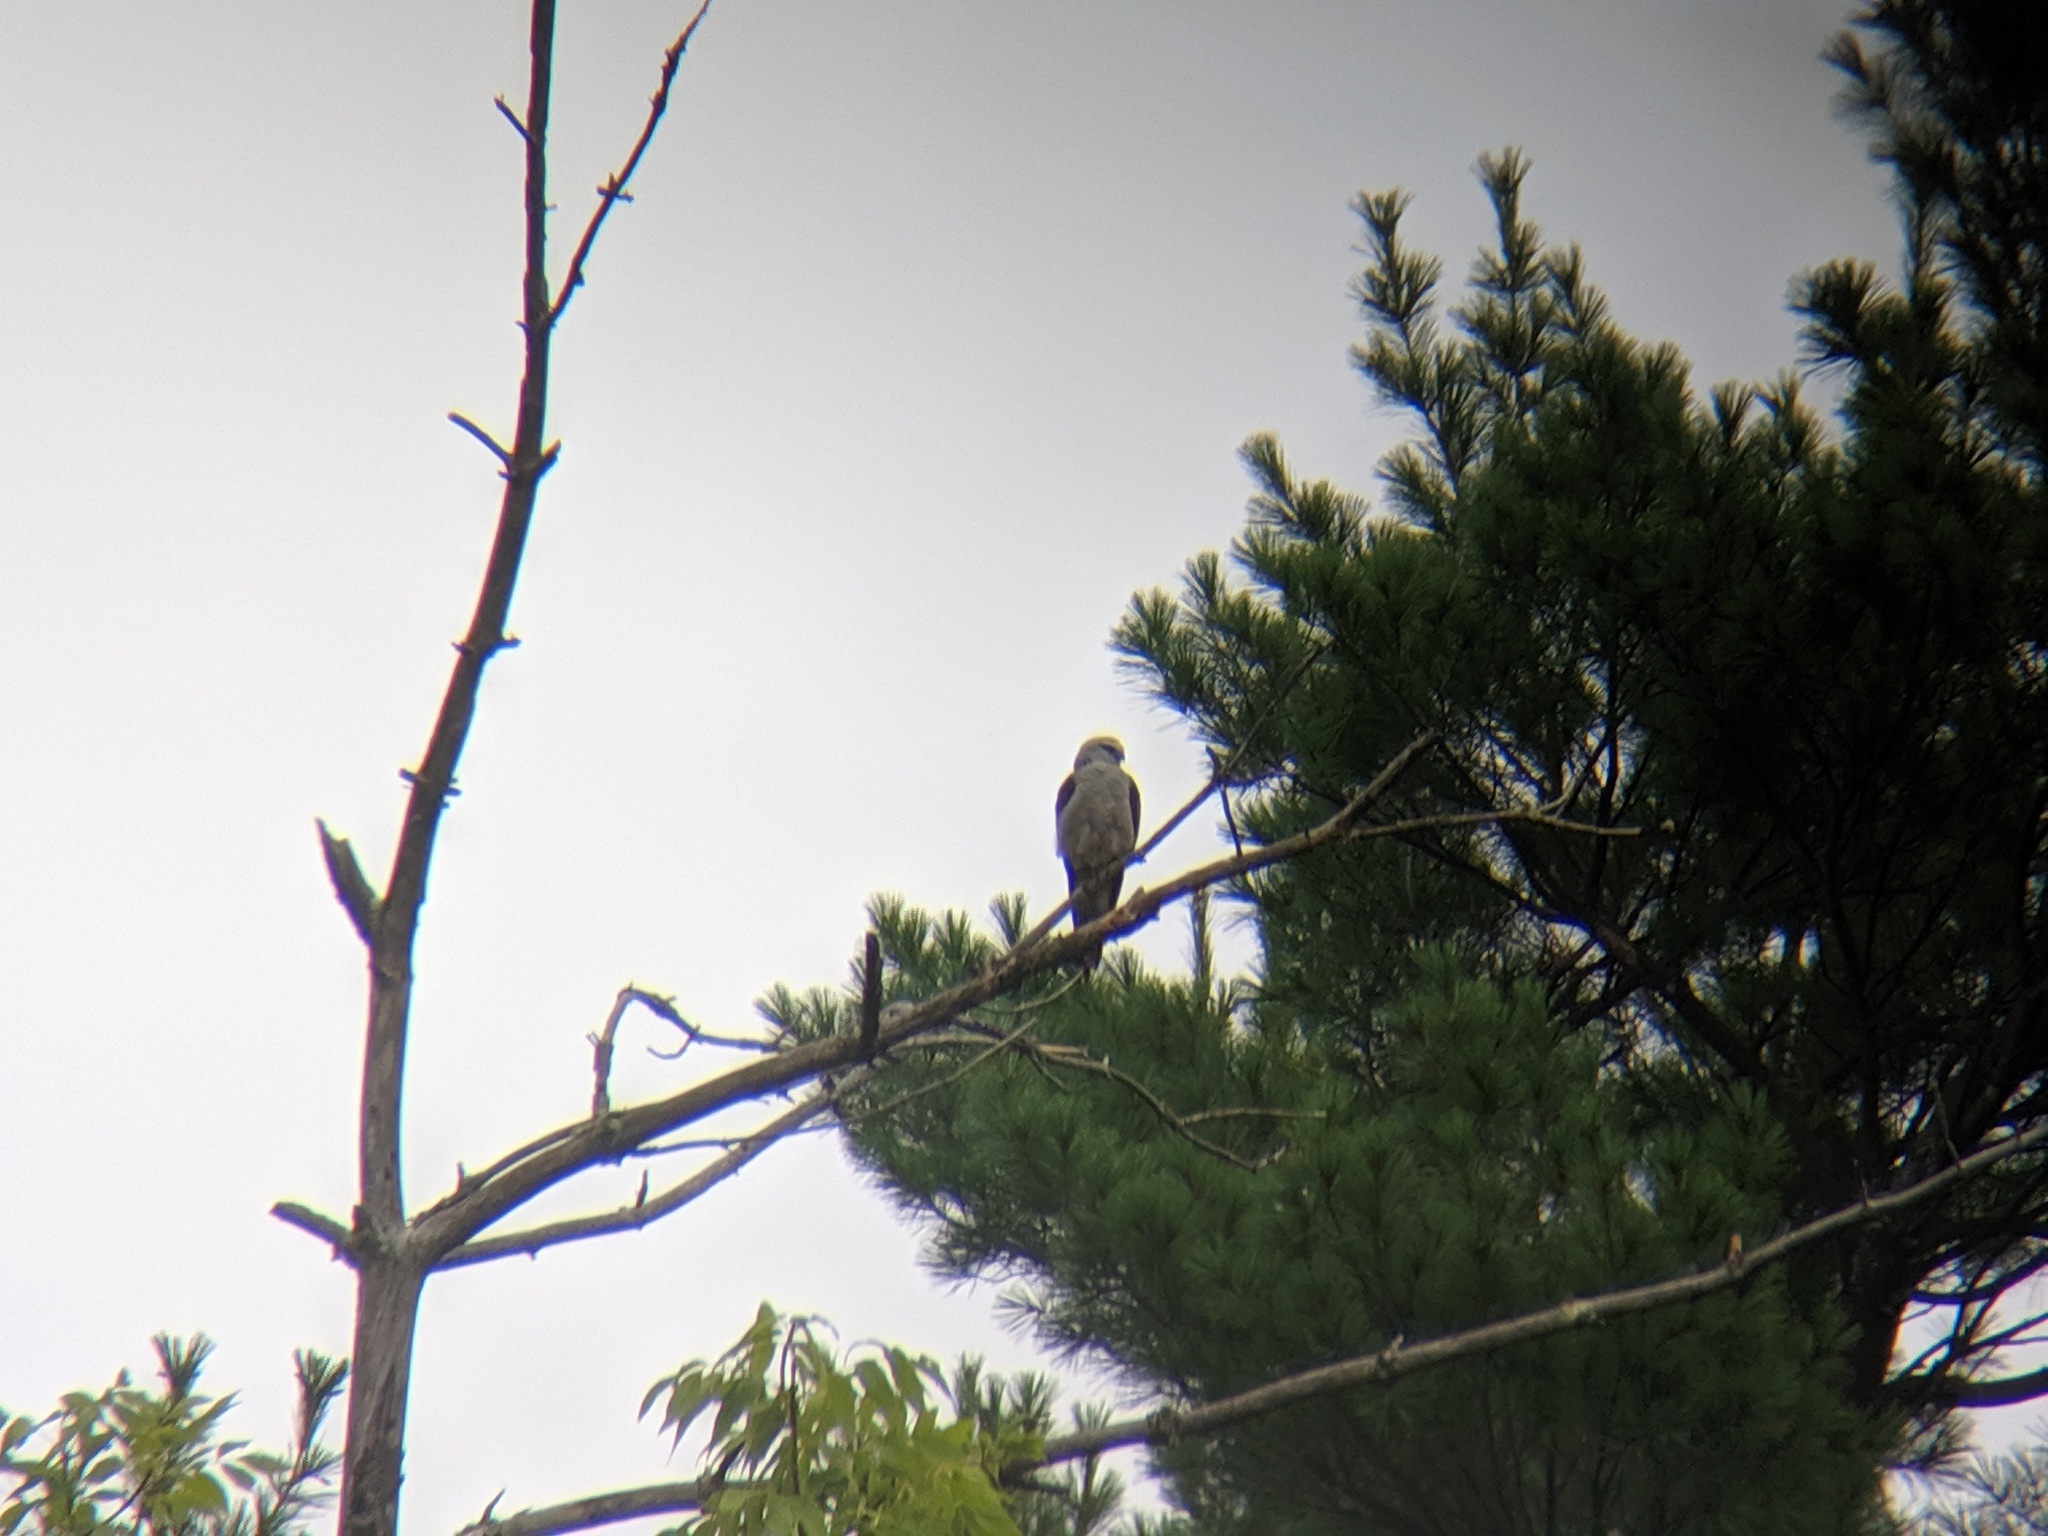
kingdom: Animalia
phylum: Chordata
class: Aves
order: Accipitriformes
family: Accipitridae
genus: Ictinia
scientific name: Ictinia mississippiensis
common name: Mississippi kite
